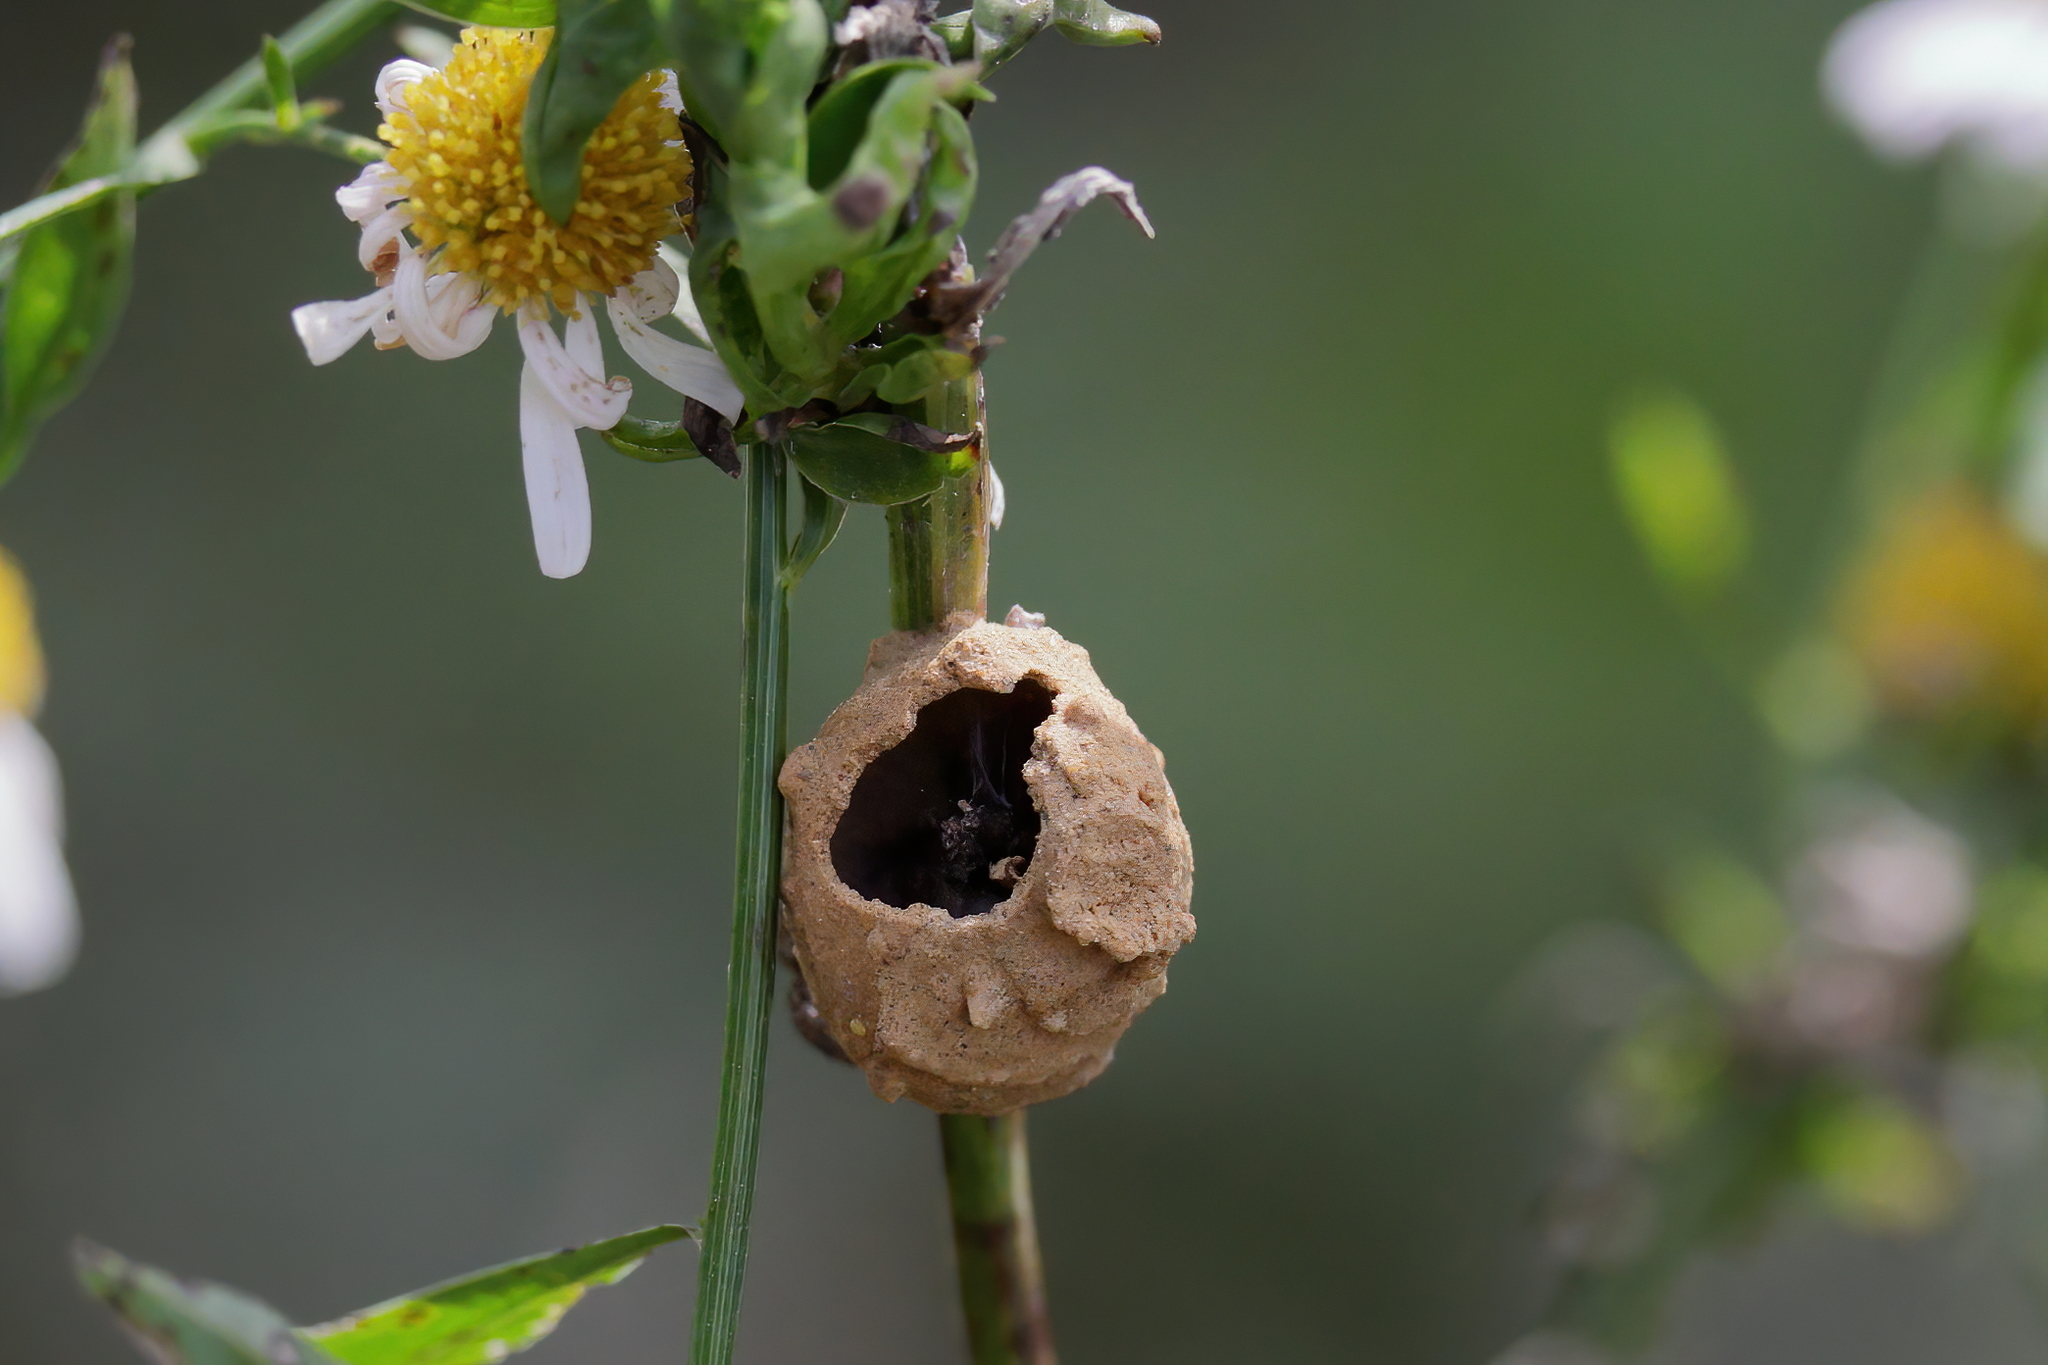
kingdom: Animalia
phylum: Arthropoda
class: Insecta
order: Hymenoptera
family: Vespidae
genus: Eumenes
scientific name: Eumenes
